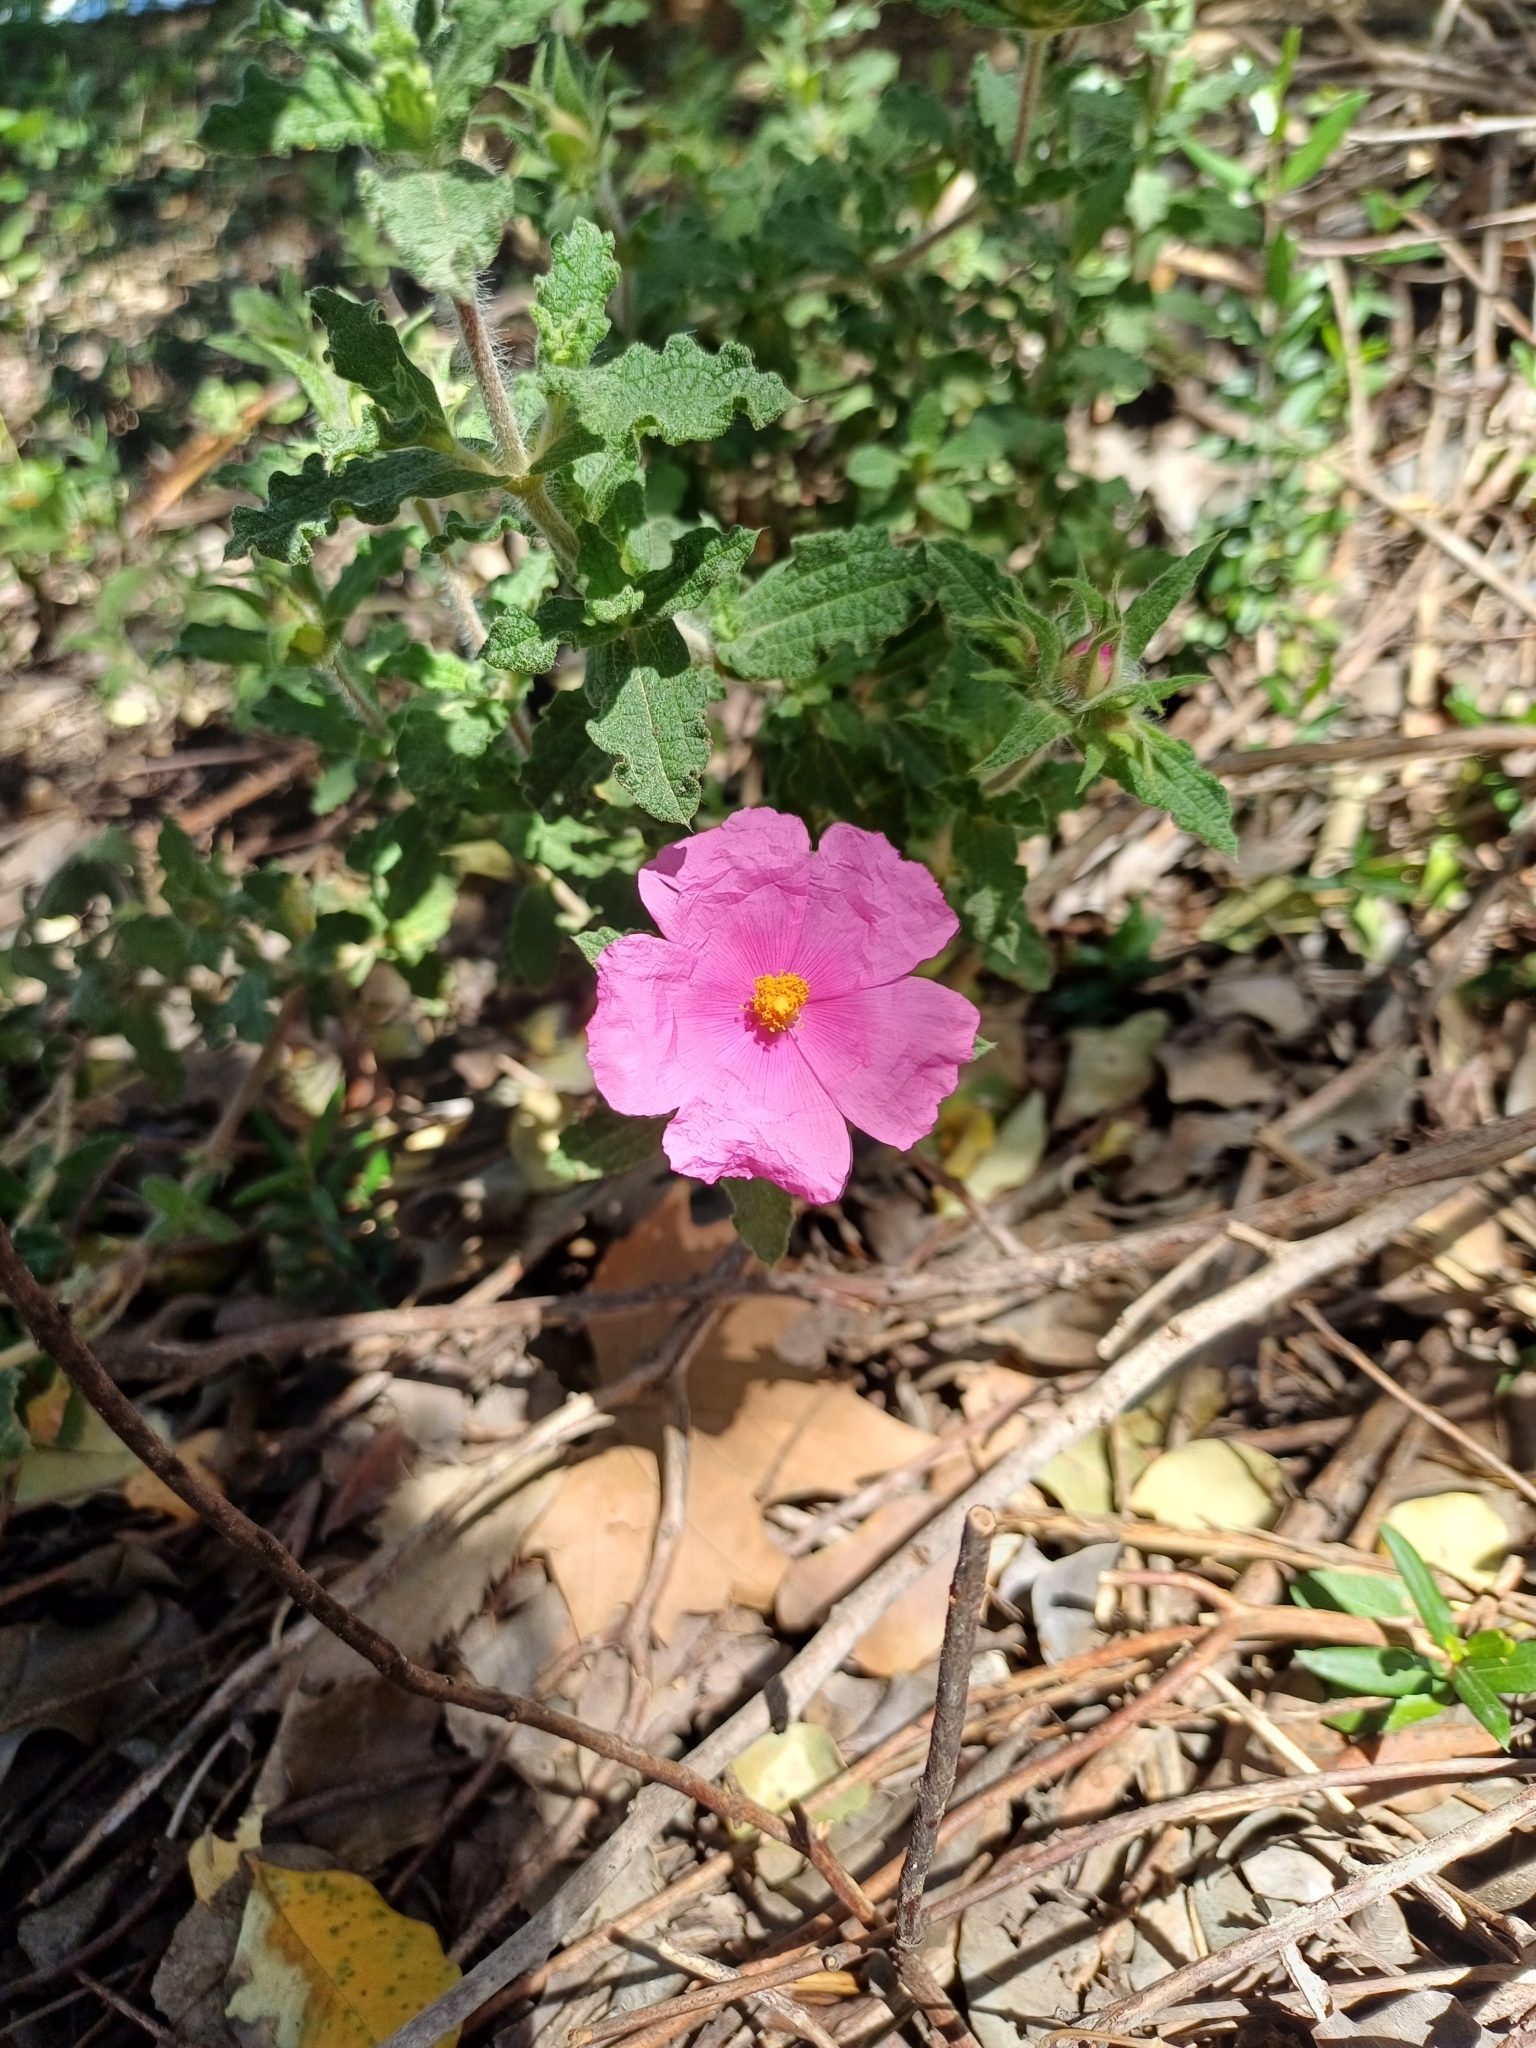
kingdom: Plantae
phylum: Tracheophyta
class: Magnoliopsida
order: Malvales
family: Cistaceae
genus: Cistus
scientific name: Cistus crispus
